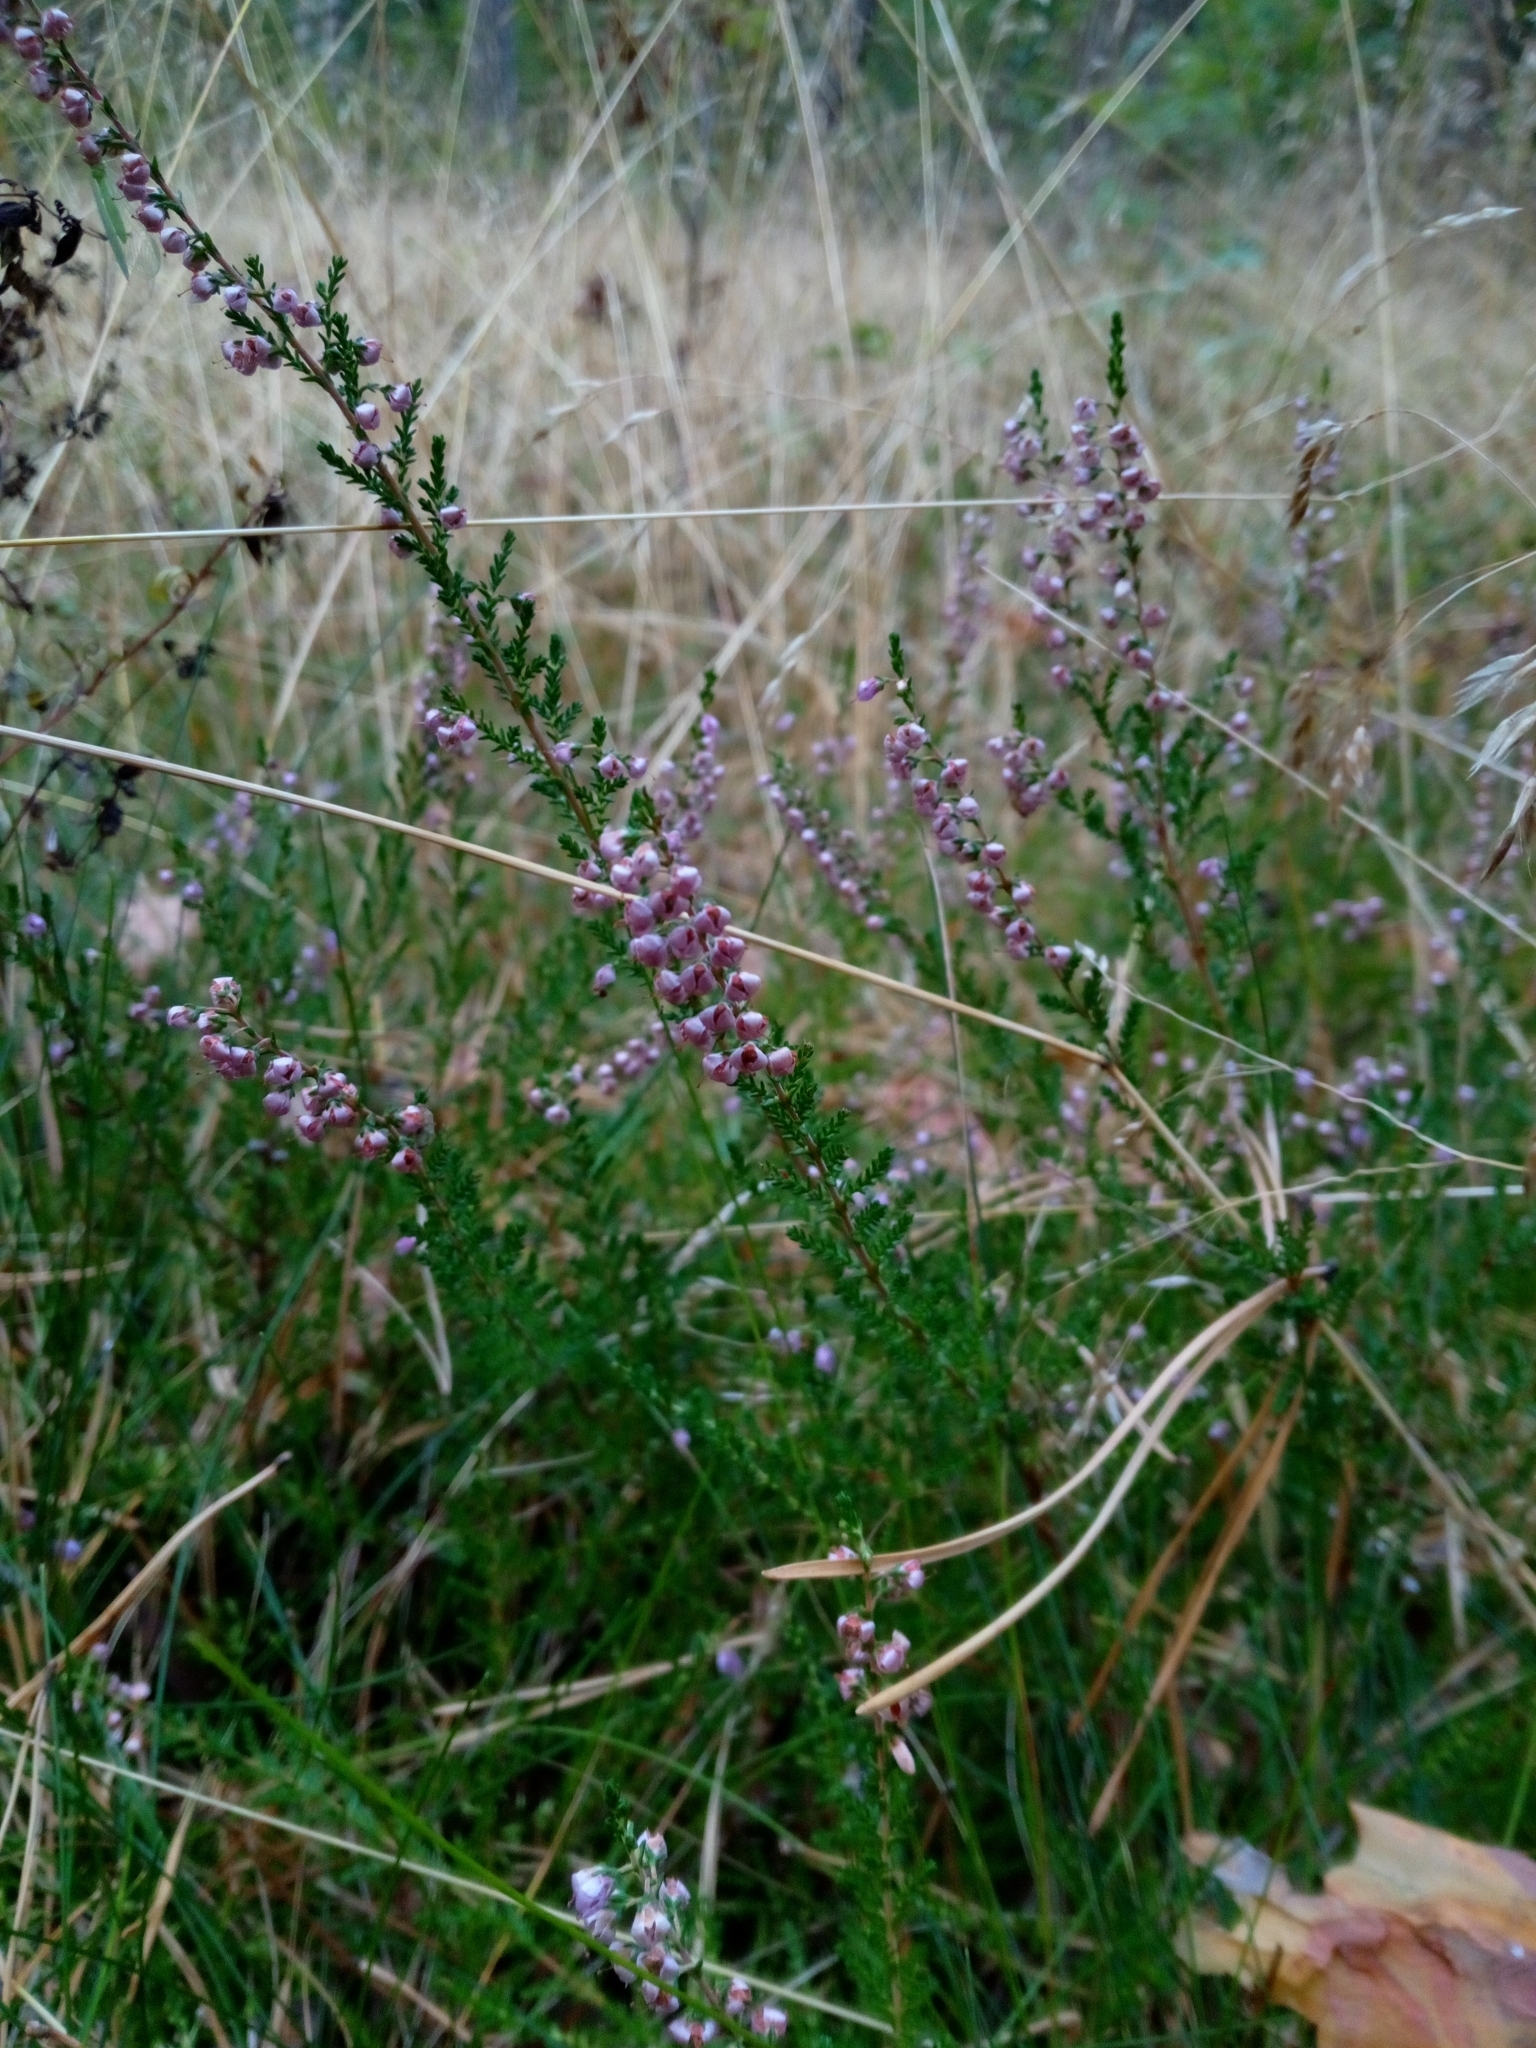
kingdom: Plantae
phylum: Tracheophyta
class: Magnoliopsida
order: Ericales
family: Ericaceae
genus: Calluna
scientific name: Calluna vulgaris
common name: Heather
